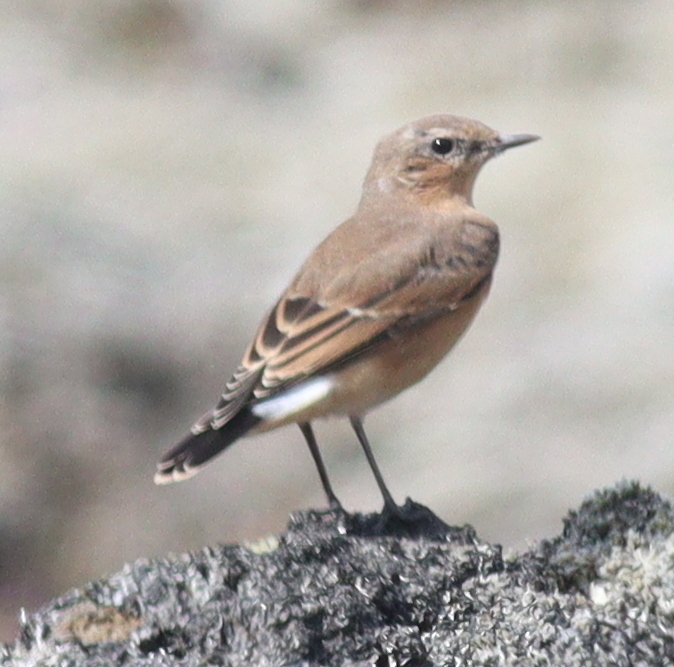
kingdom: Animalia
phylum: Chordata
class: Aves
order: Passeriformes
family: Muscicapidae
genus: Oenanthe
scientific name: Oenanthe oenanthe
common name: Northern wheatear
